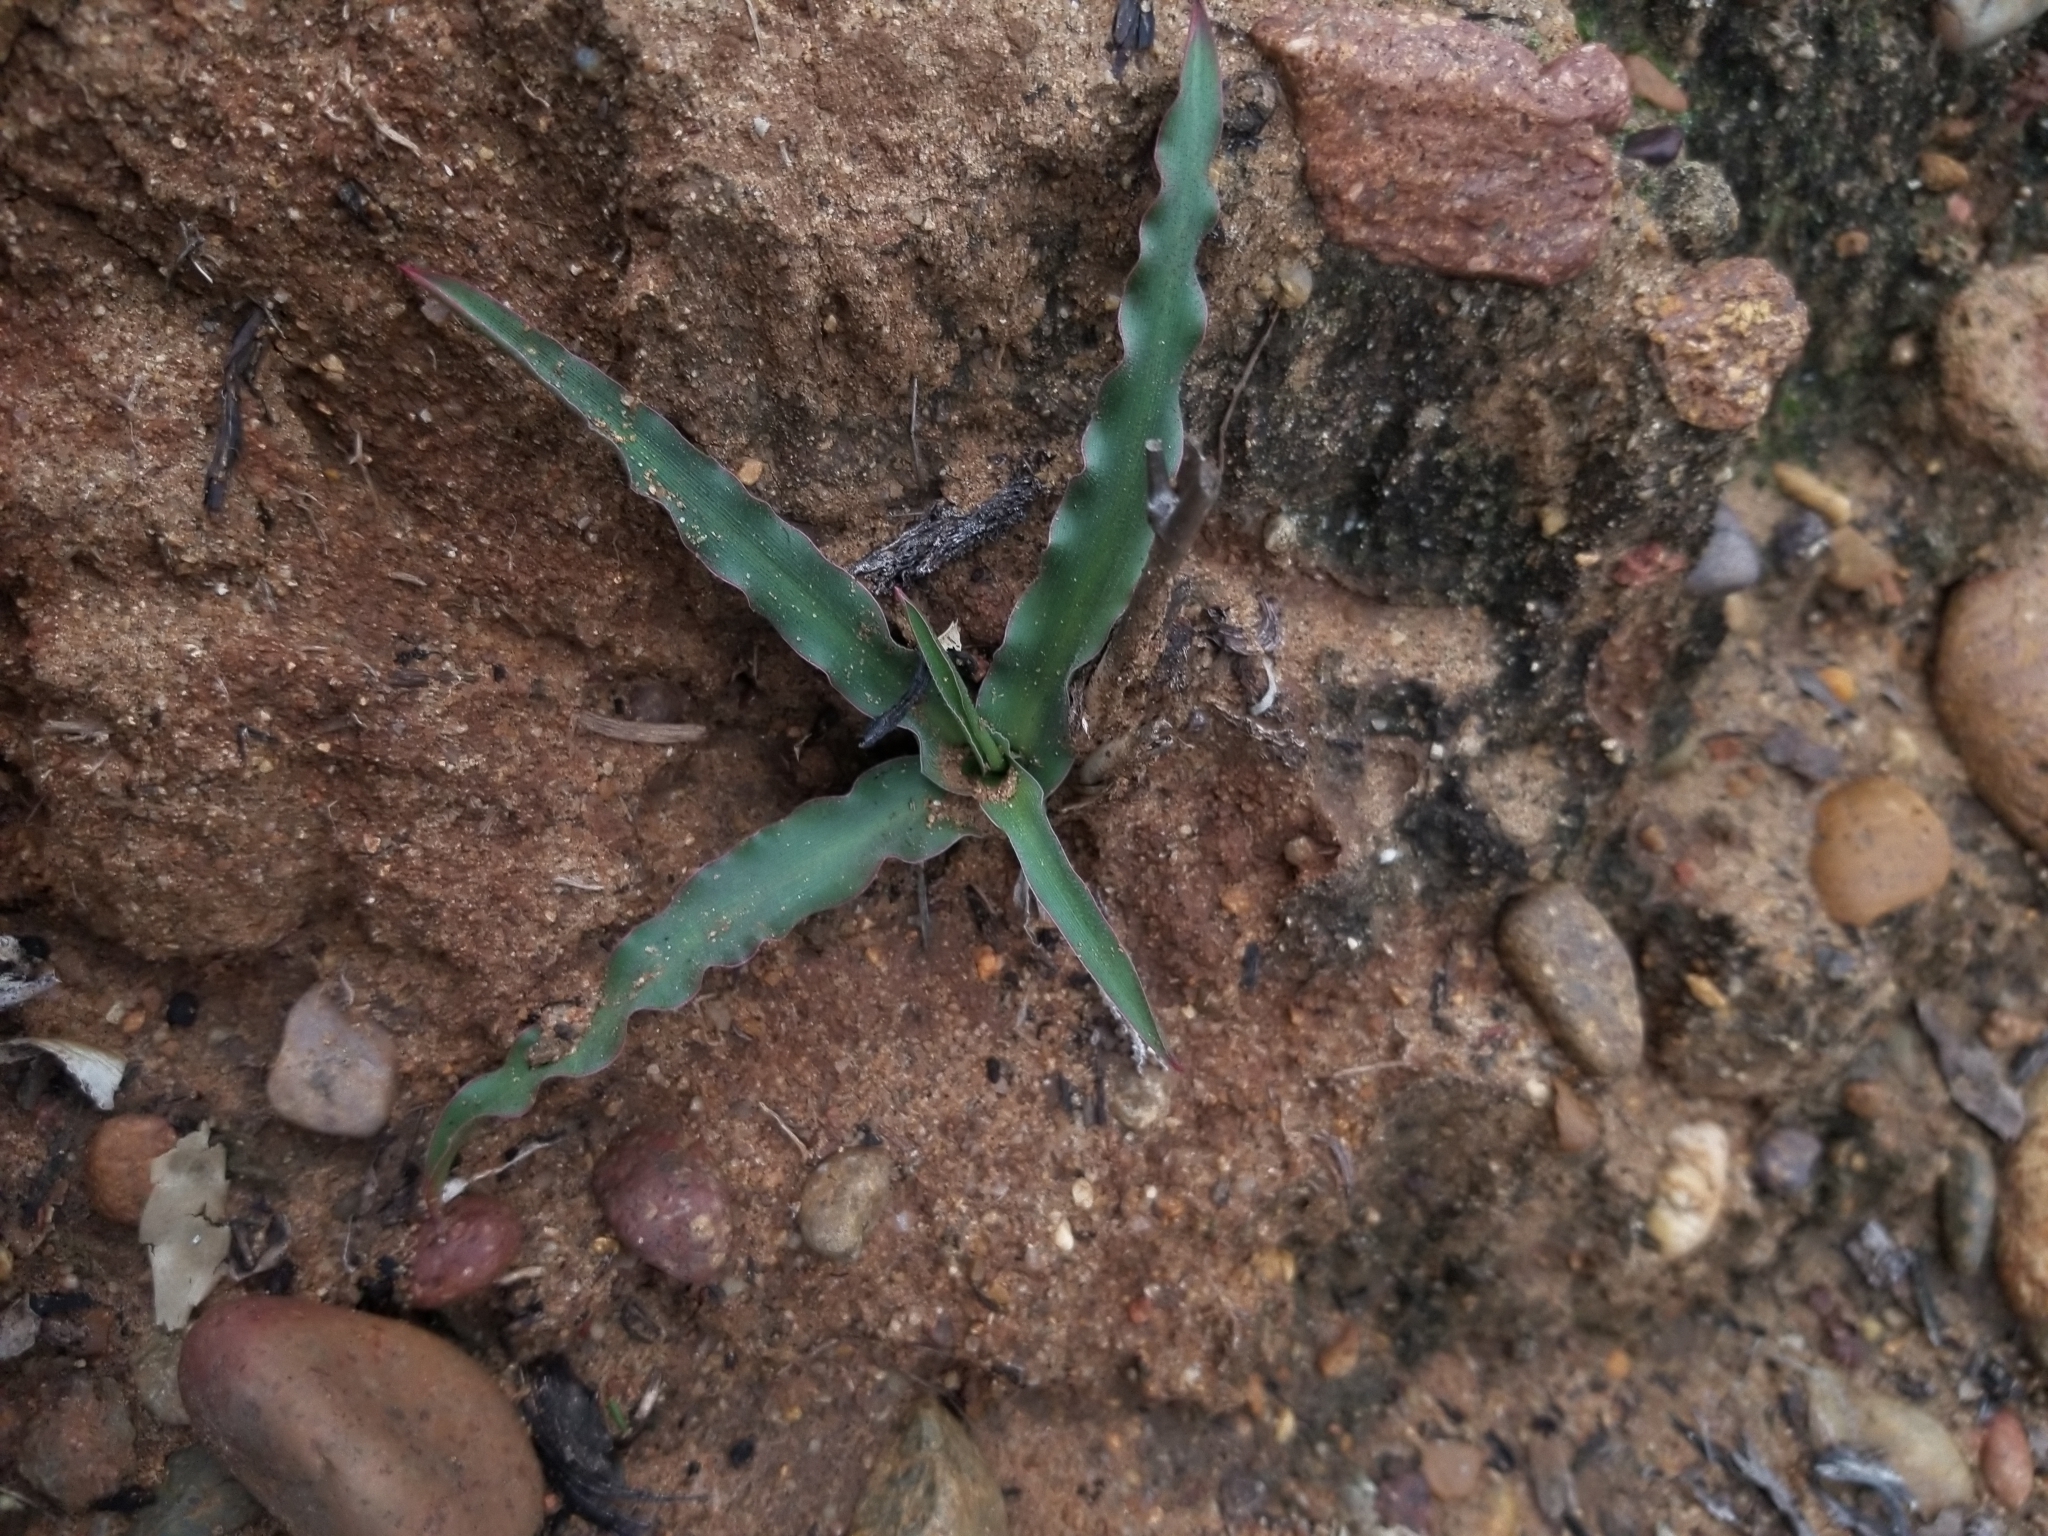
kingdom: Plantae
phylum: Tracheophyta
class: Liliopsida
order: Asparagales
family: Asparagaceae
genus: Hooveria
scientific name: Hooveria parviflora
